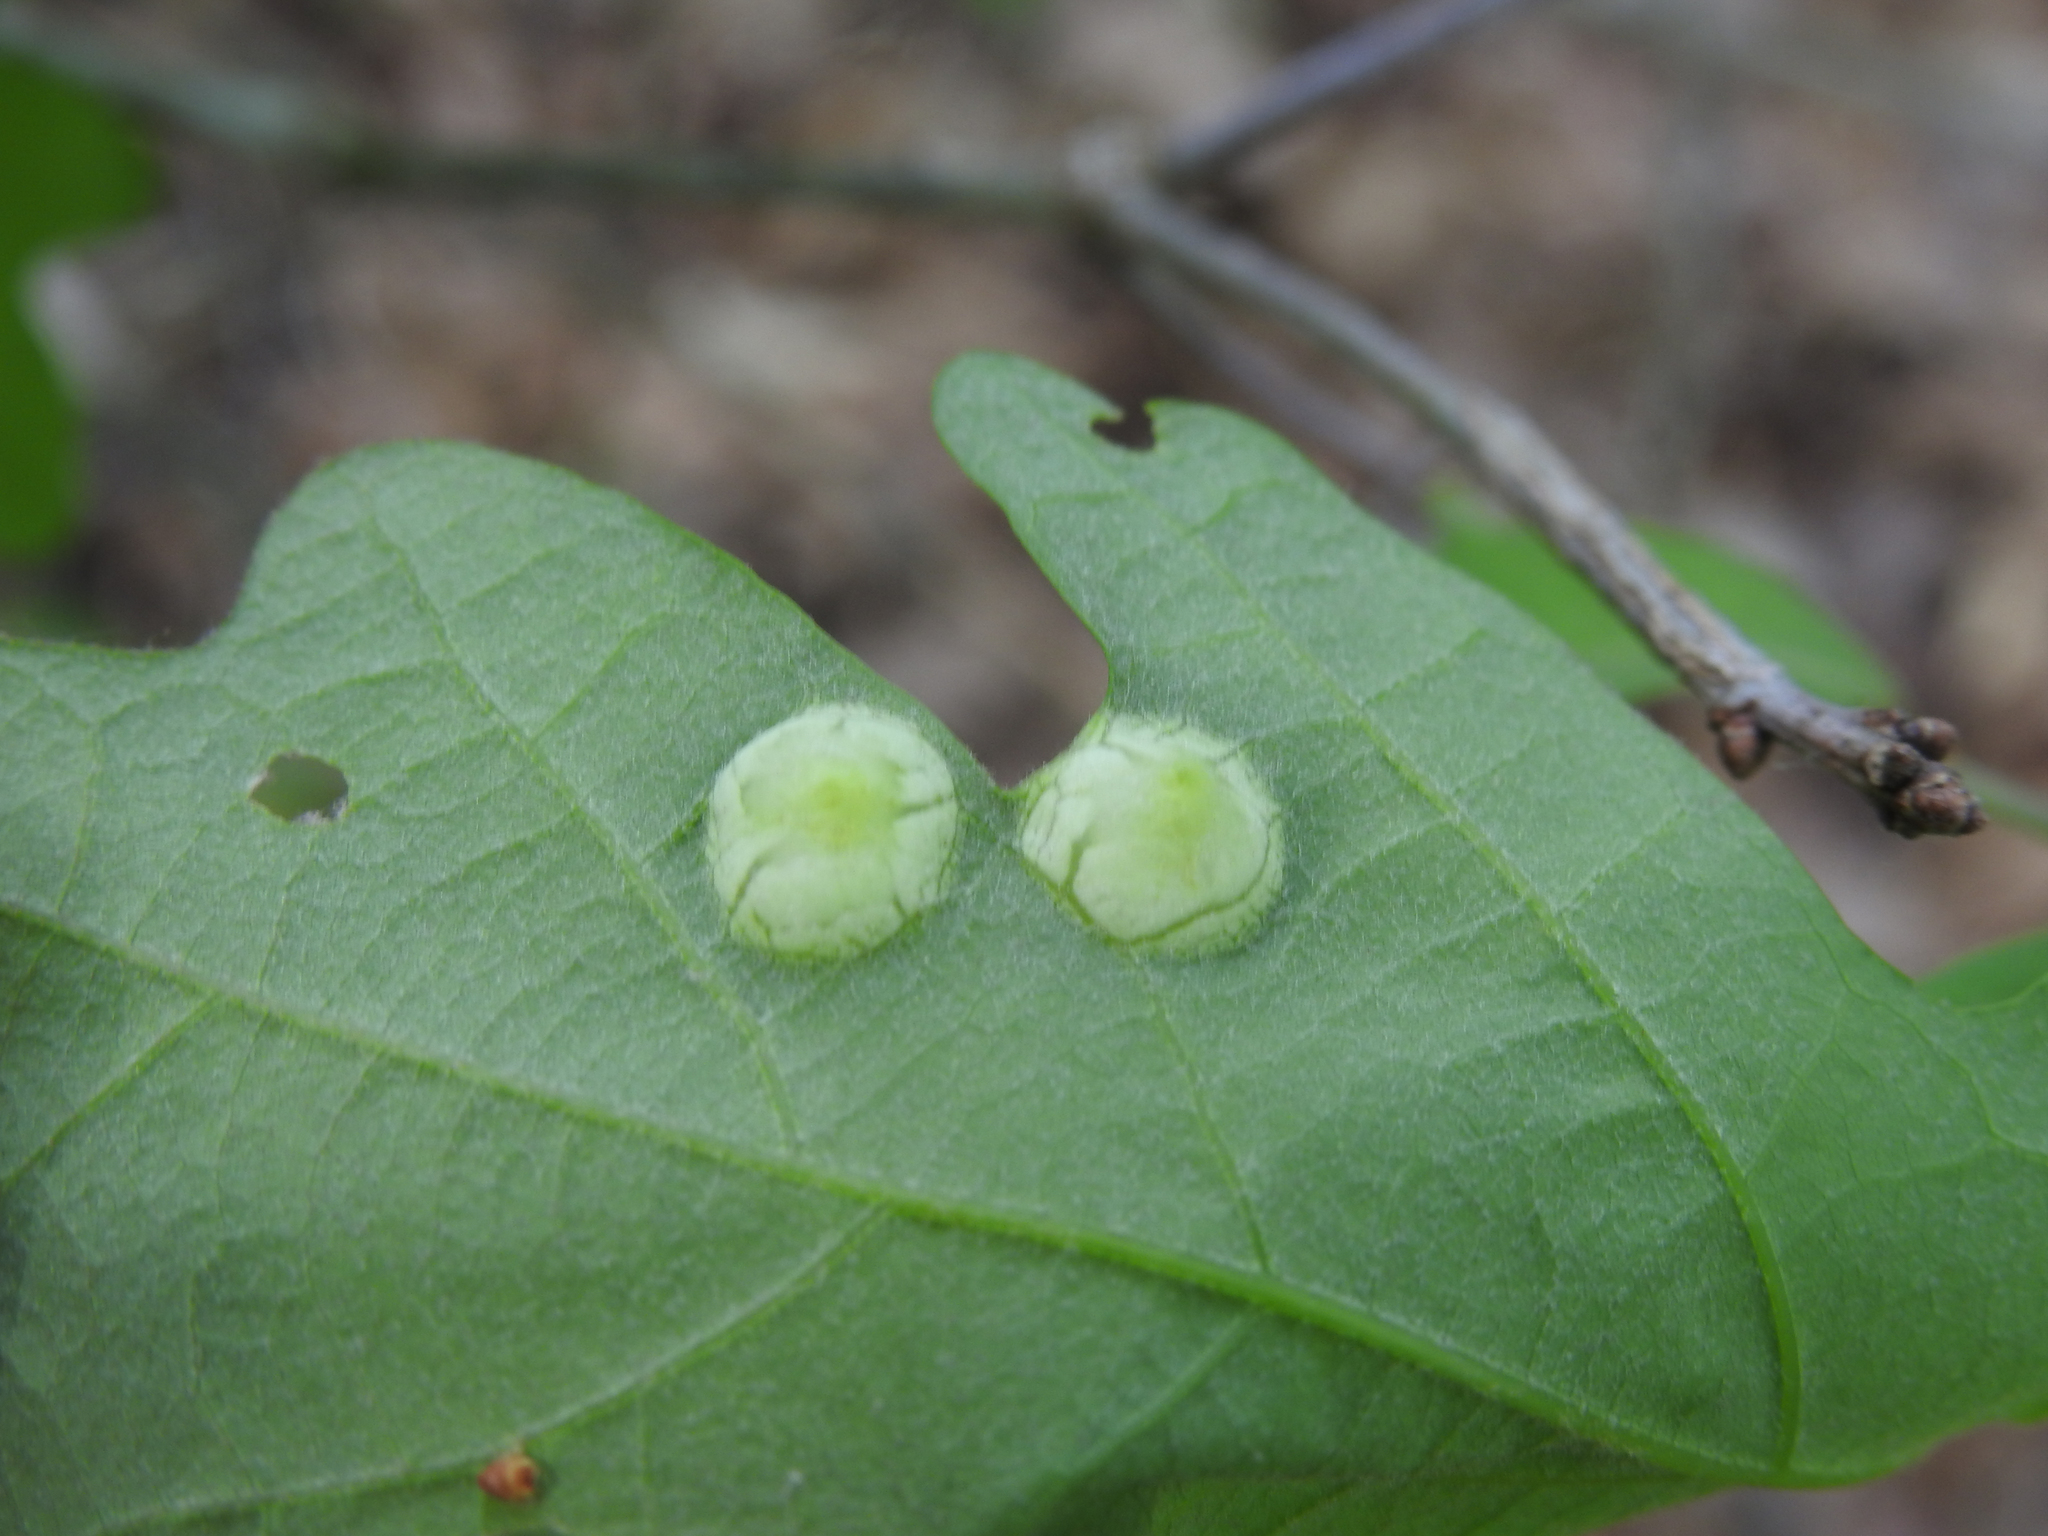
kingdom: Animalia
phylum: Arthropoda
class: Insecta
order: Hymenoptera
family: Cynipidae
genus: Callirhytis
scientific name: Callirhytis
